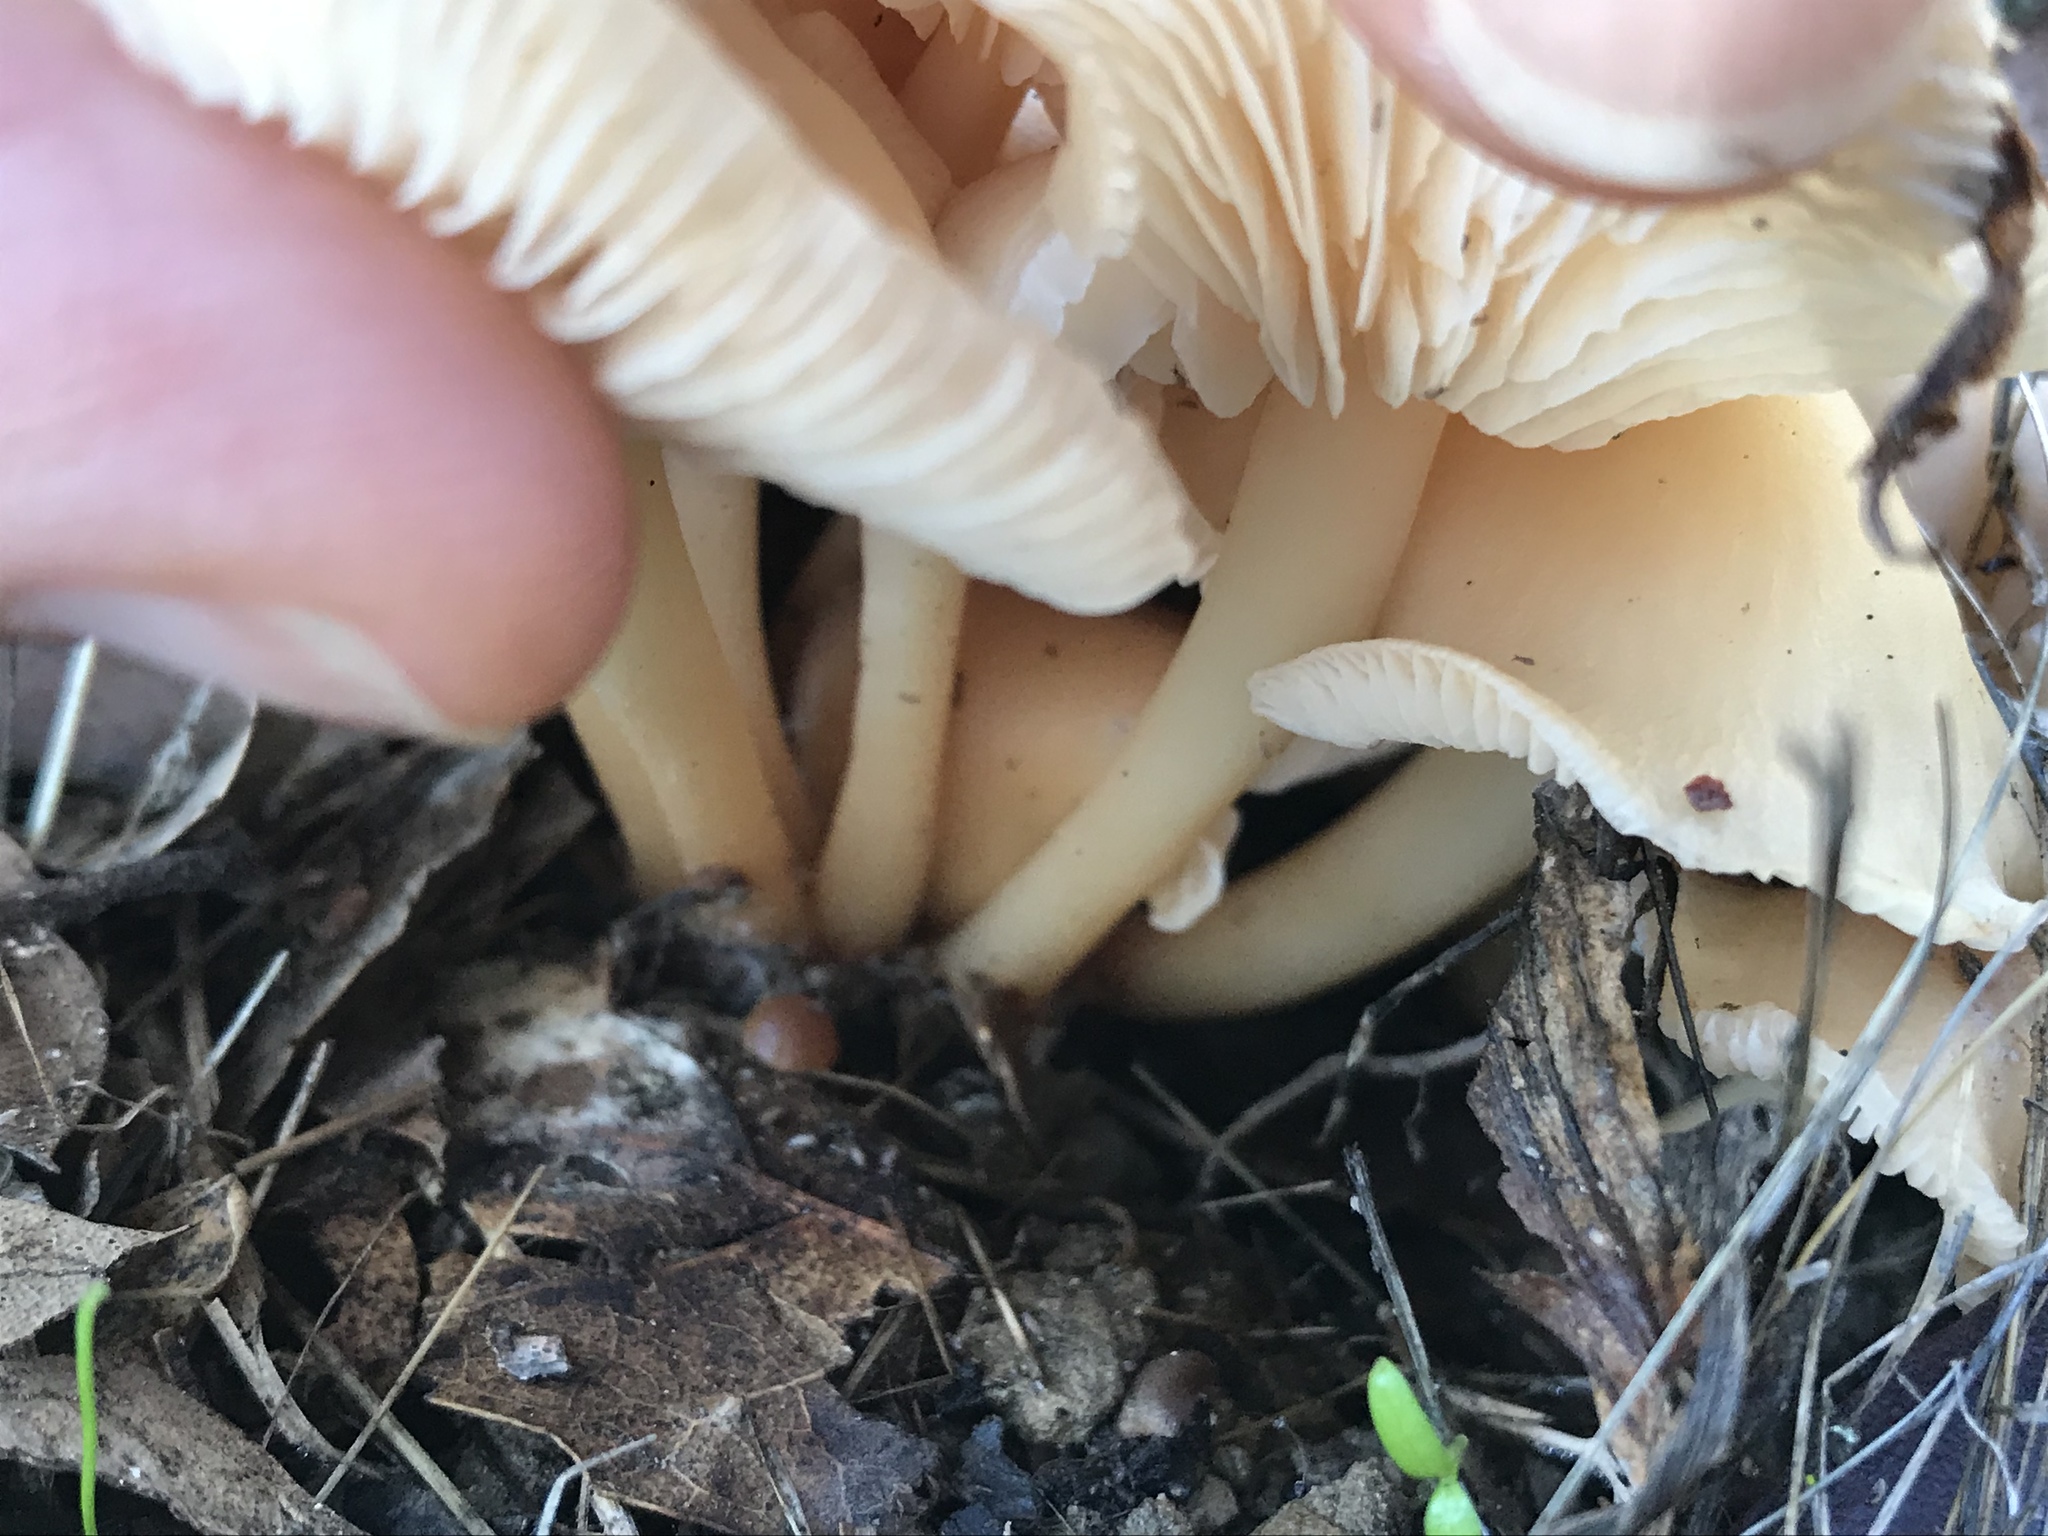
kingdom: Fungi
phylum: Basidiomycota
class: Agaricomycetes
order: Agaricales
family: Omphalotaceae
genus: Gymnopus
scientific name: Gymnopus dryophilus
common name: Penny top
